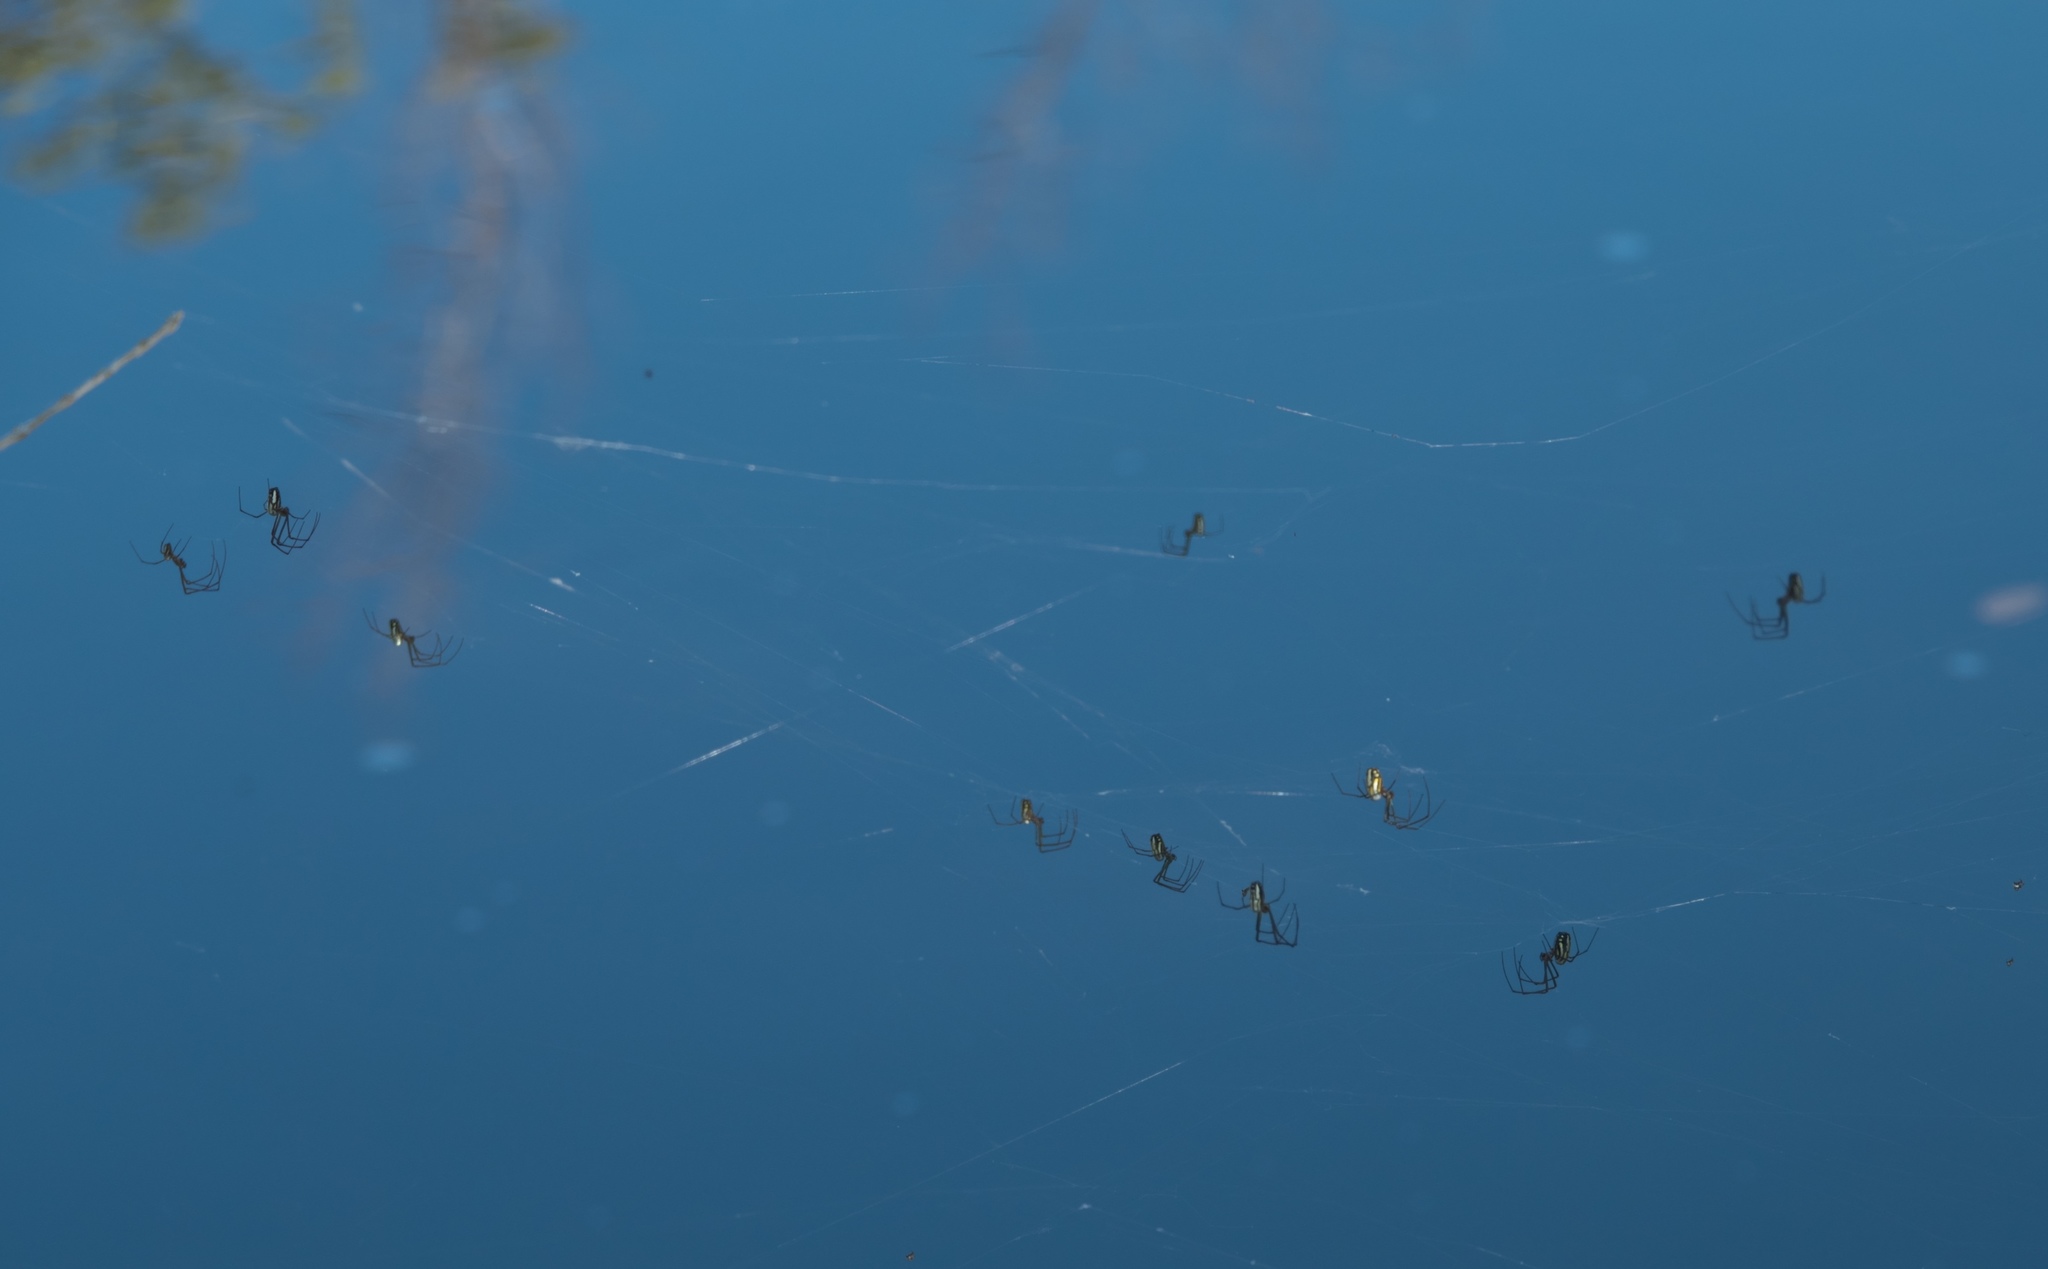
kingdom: Animalia
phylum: Arthropoda
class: Arachnida
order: Araneae
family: Tetragnathidae
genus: Leucauge
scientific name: Leucauge argyra
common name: Longjawed orb weavers
